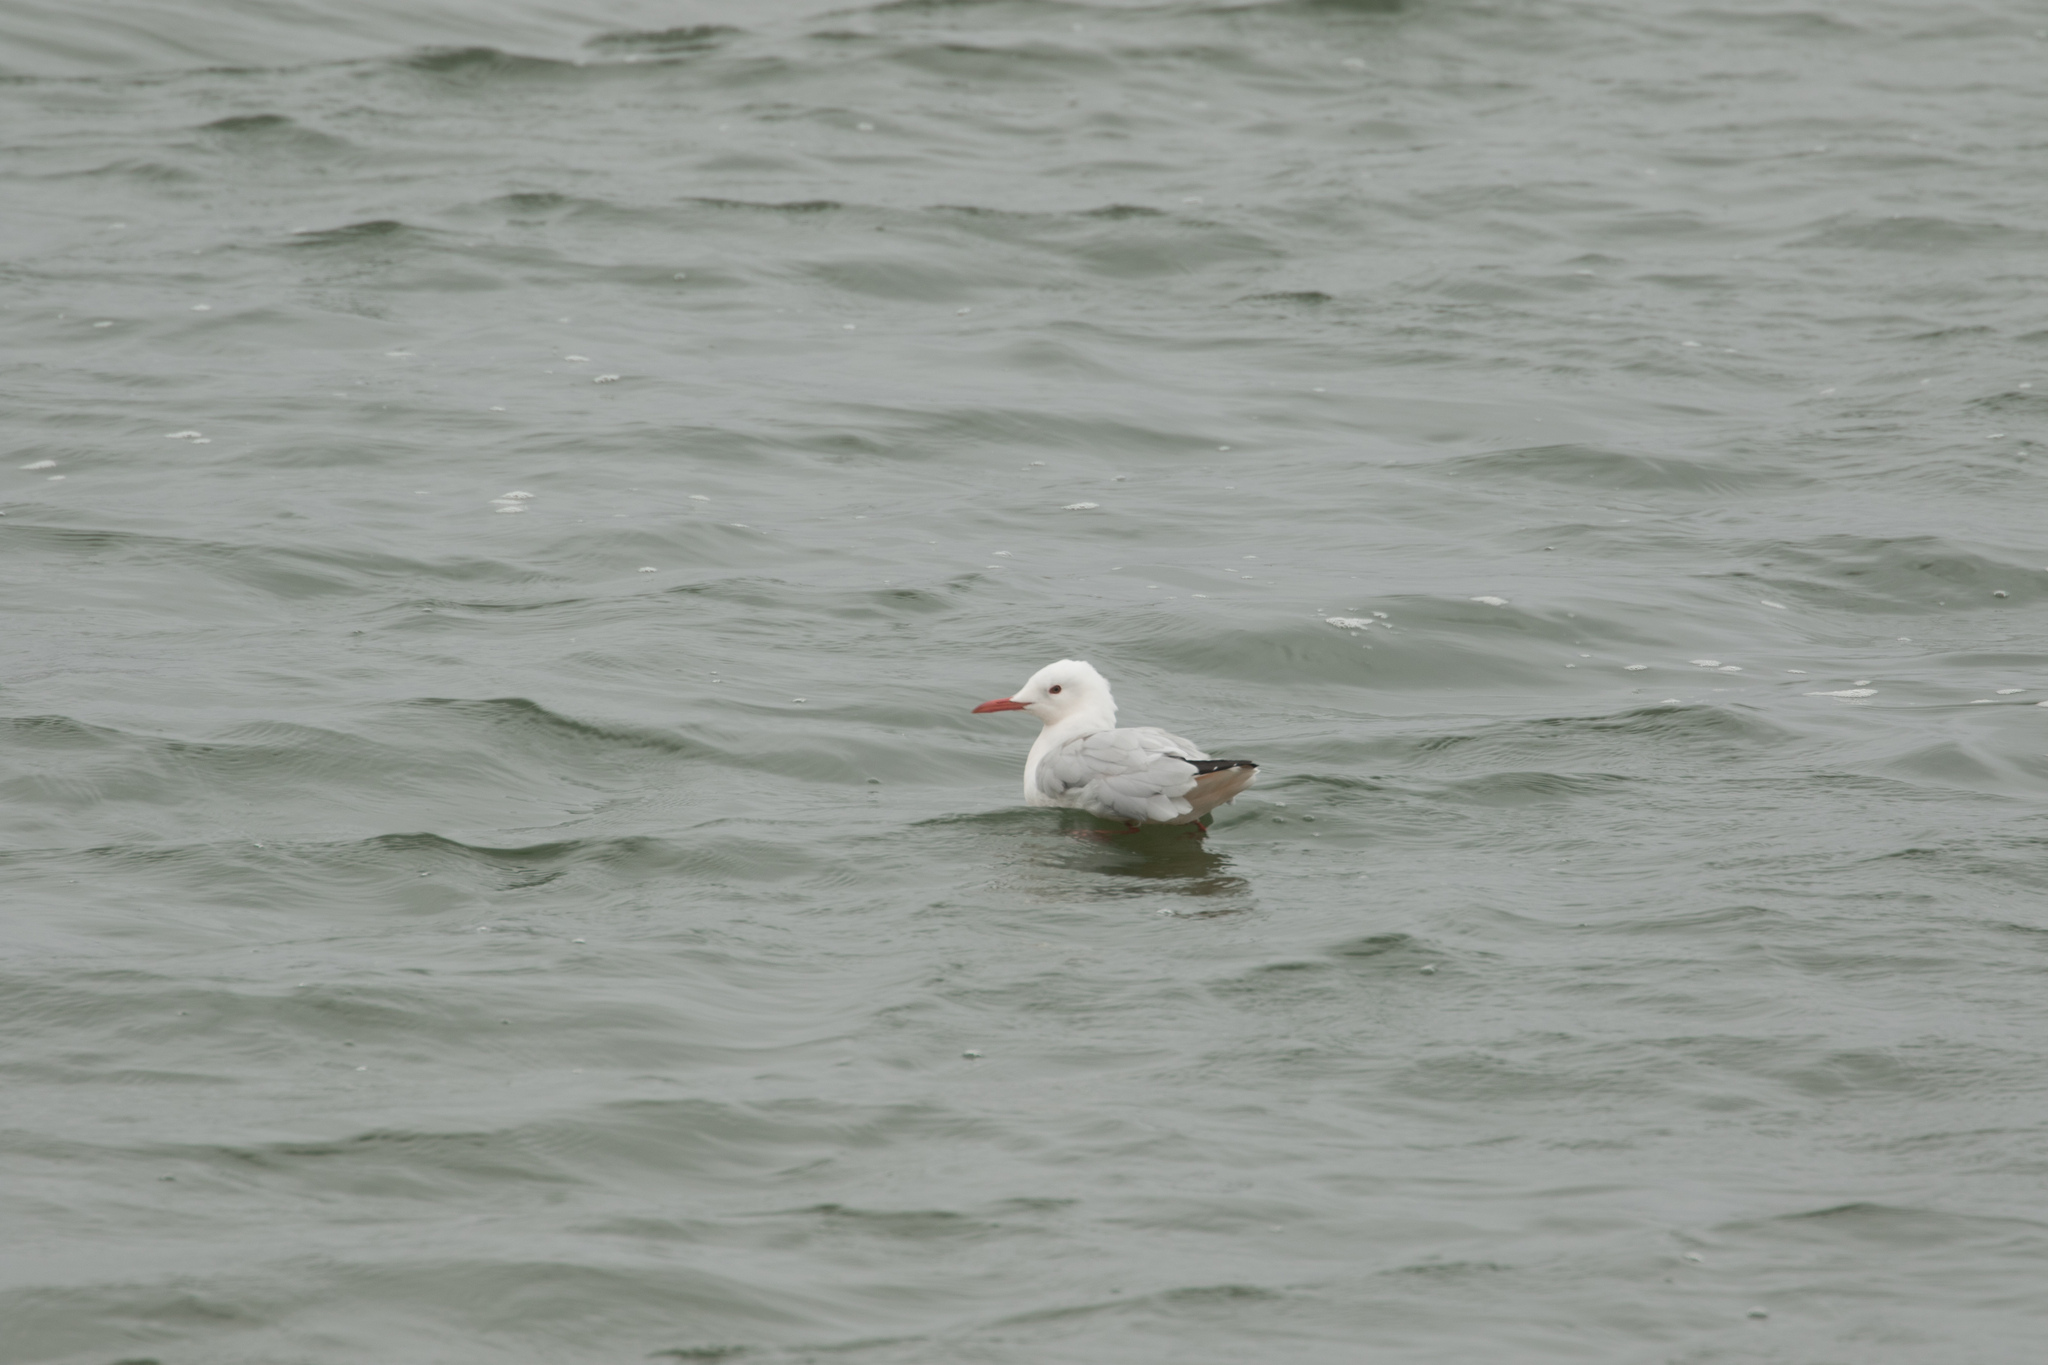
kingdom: Animalia
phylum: Chordata
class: Aves
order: Charadriiformes
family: Laridae
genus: Chroicocephalus
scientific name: Chroicocephalus genei
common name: Slender-billed gull
